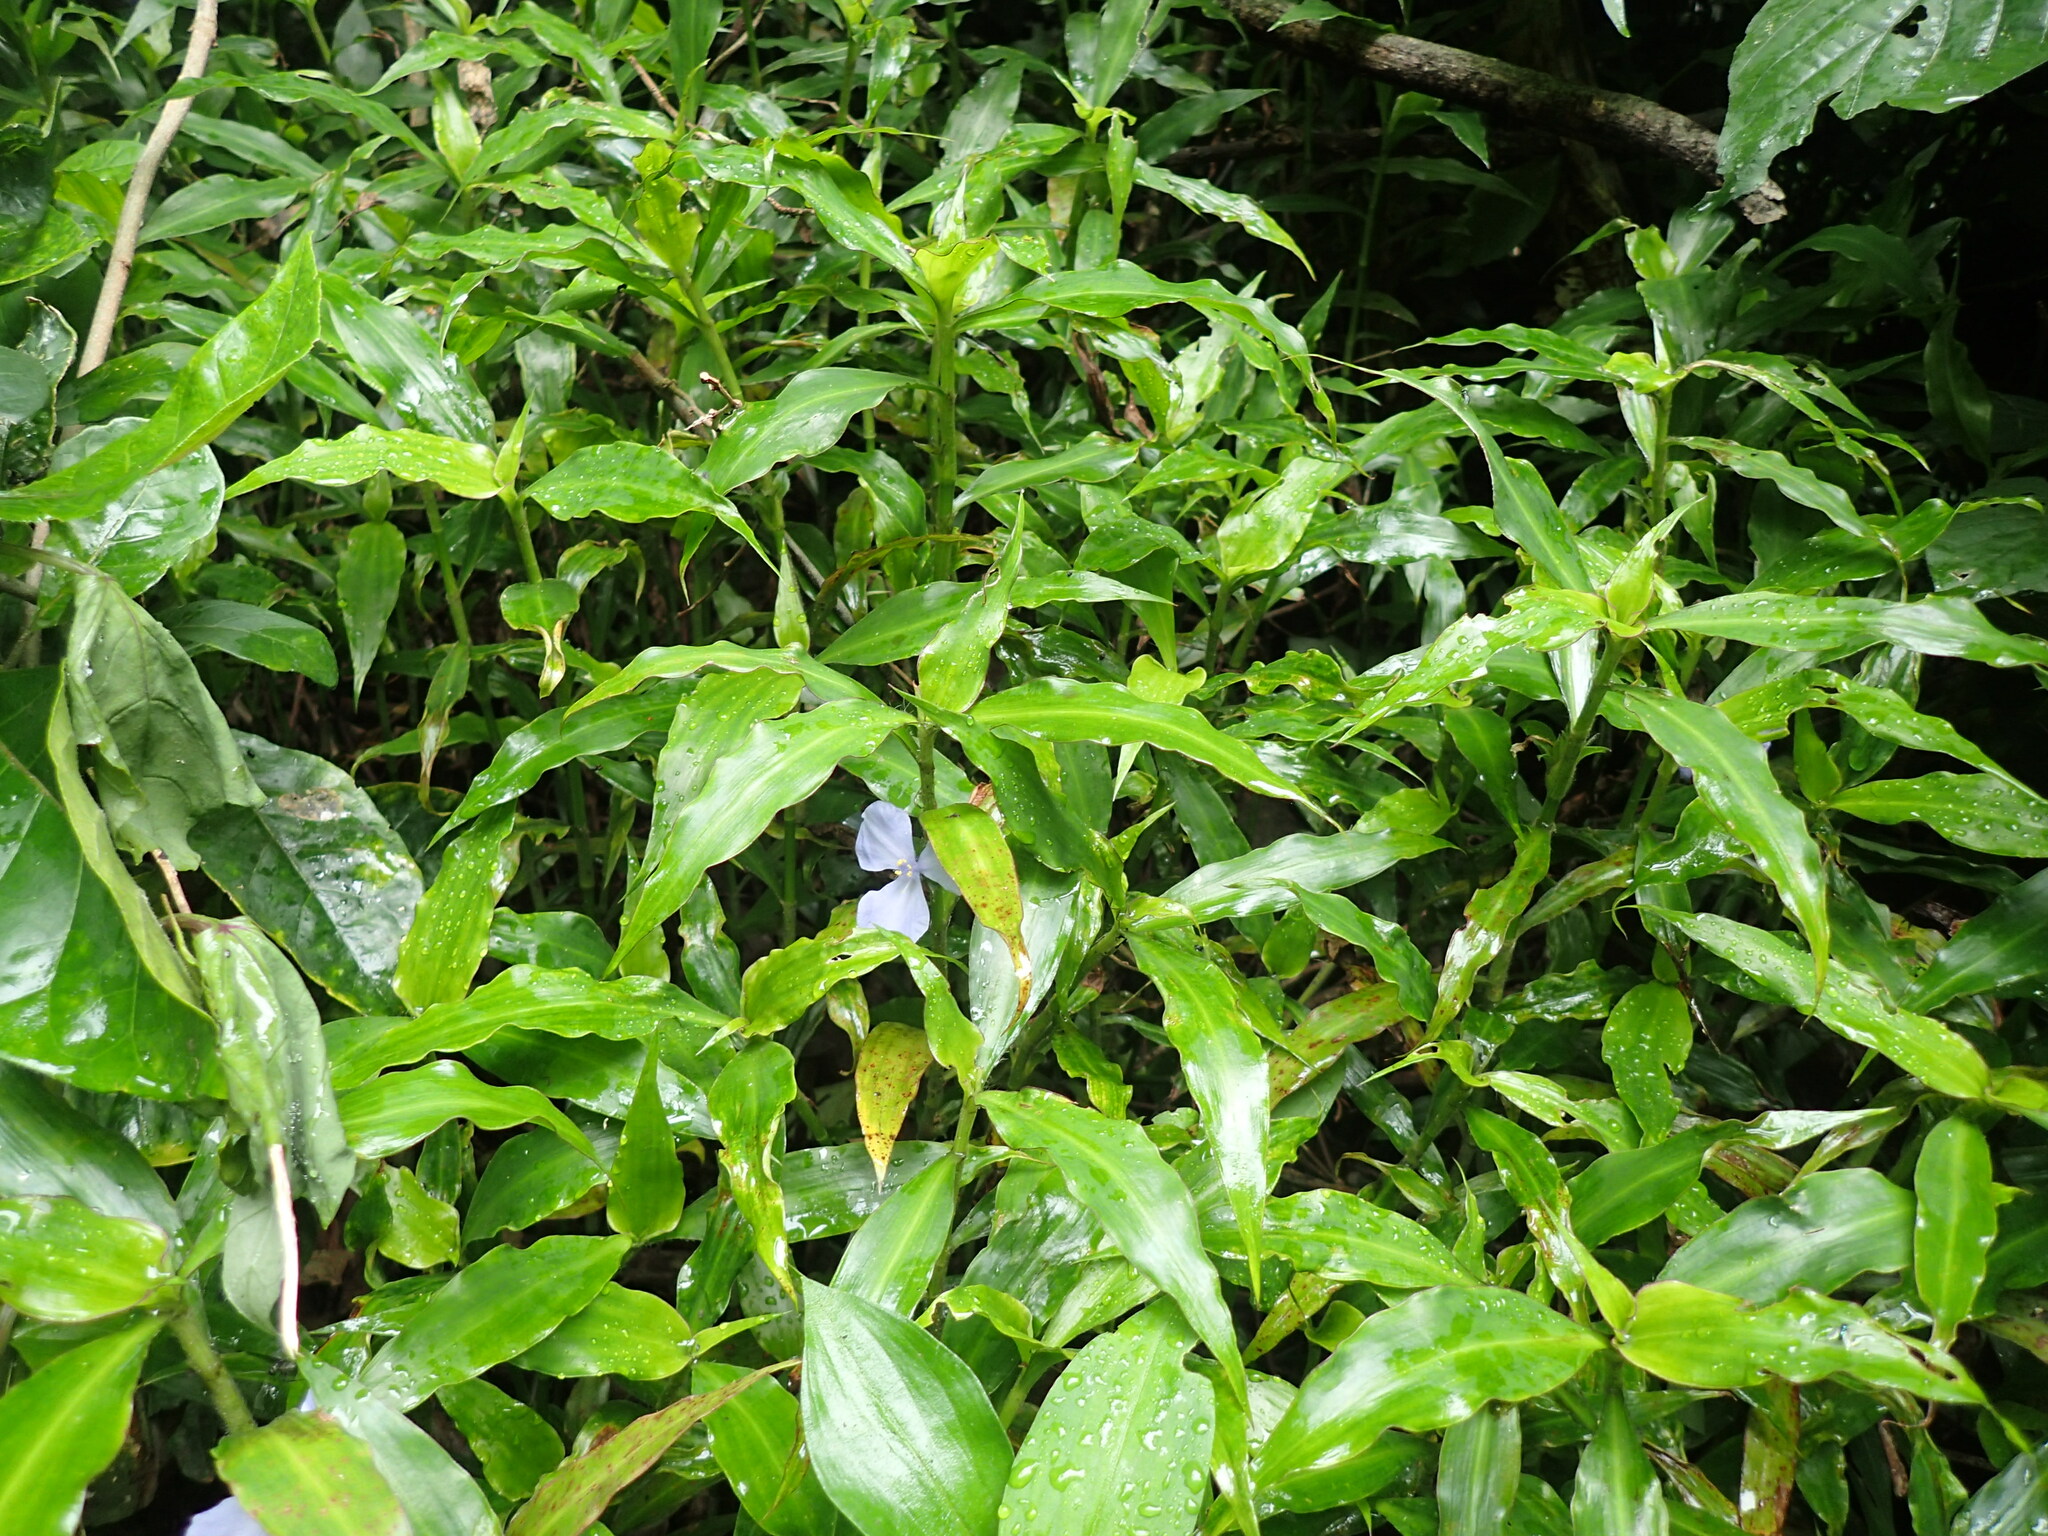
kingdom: Plantae
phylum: Tracheophyta
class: Liliopsida
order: Commelinales
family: Commelinaceae
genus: Coleotrype
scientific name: Coleotrype natalensis
